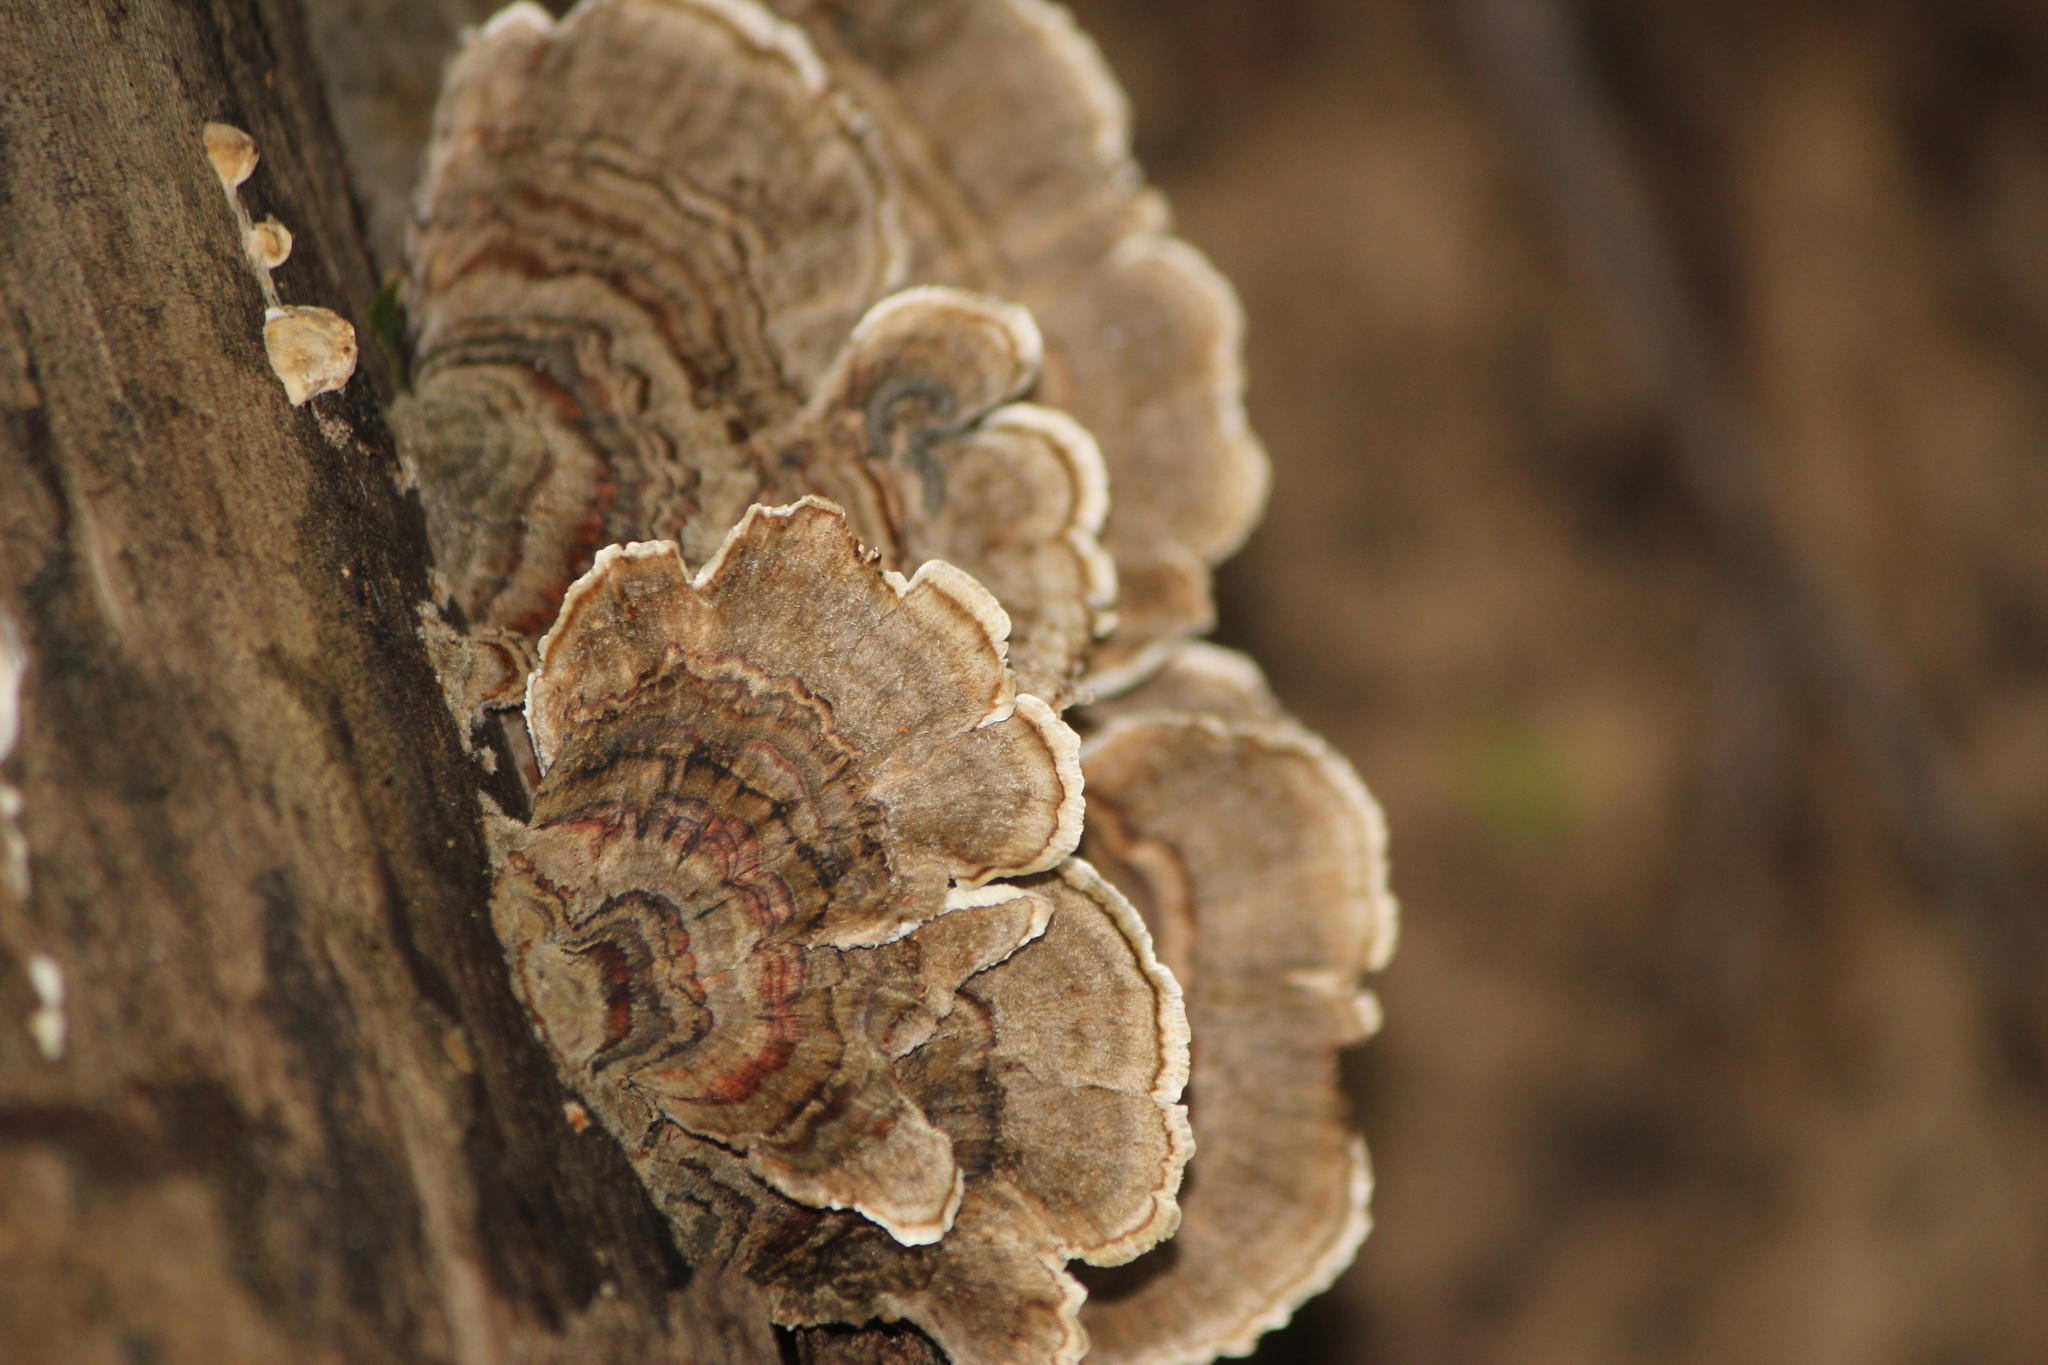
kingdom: Fungi
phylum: Basidiomycota
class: Agaricomycetes
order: Polyporales
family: Polyporaceae
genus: Trametes
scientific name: Trametes versicolor
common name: Turkeytail
